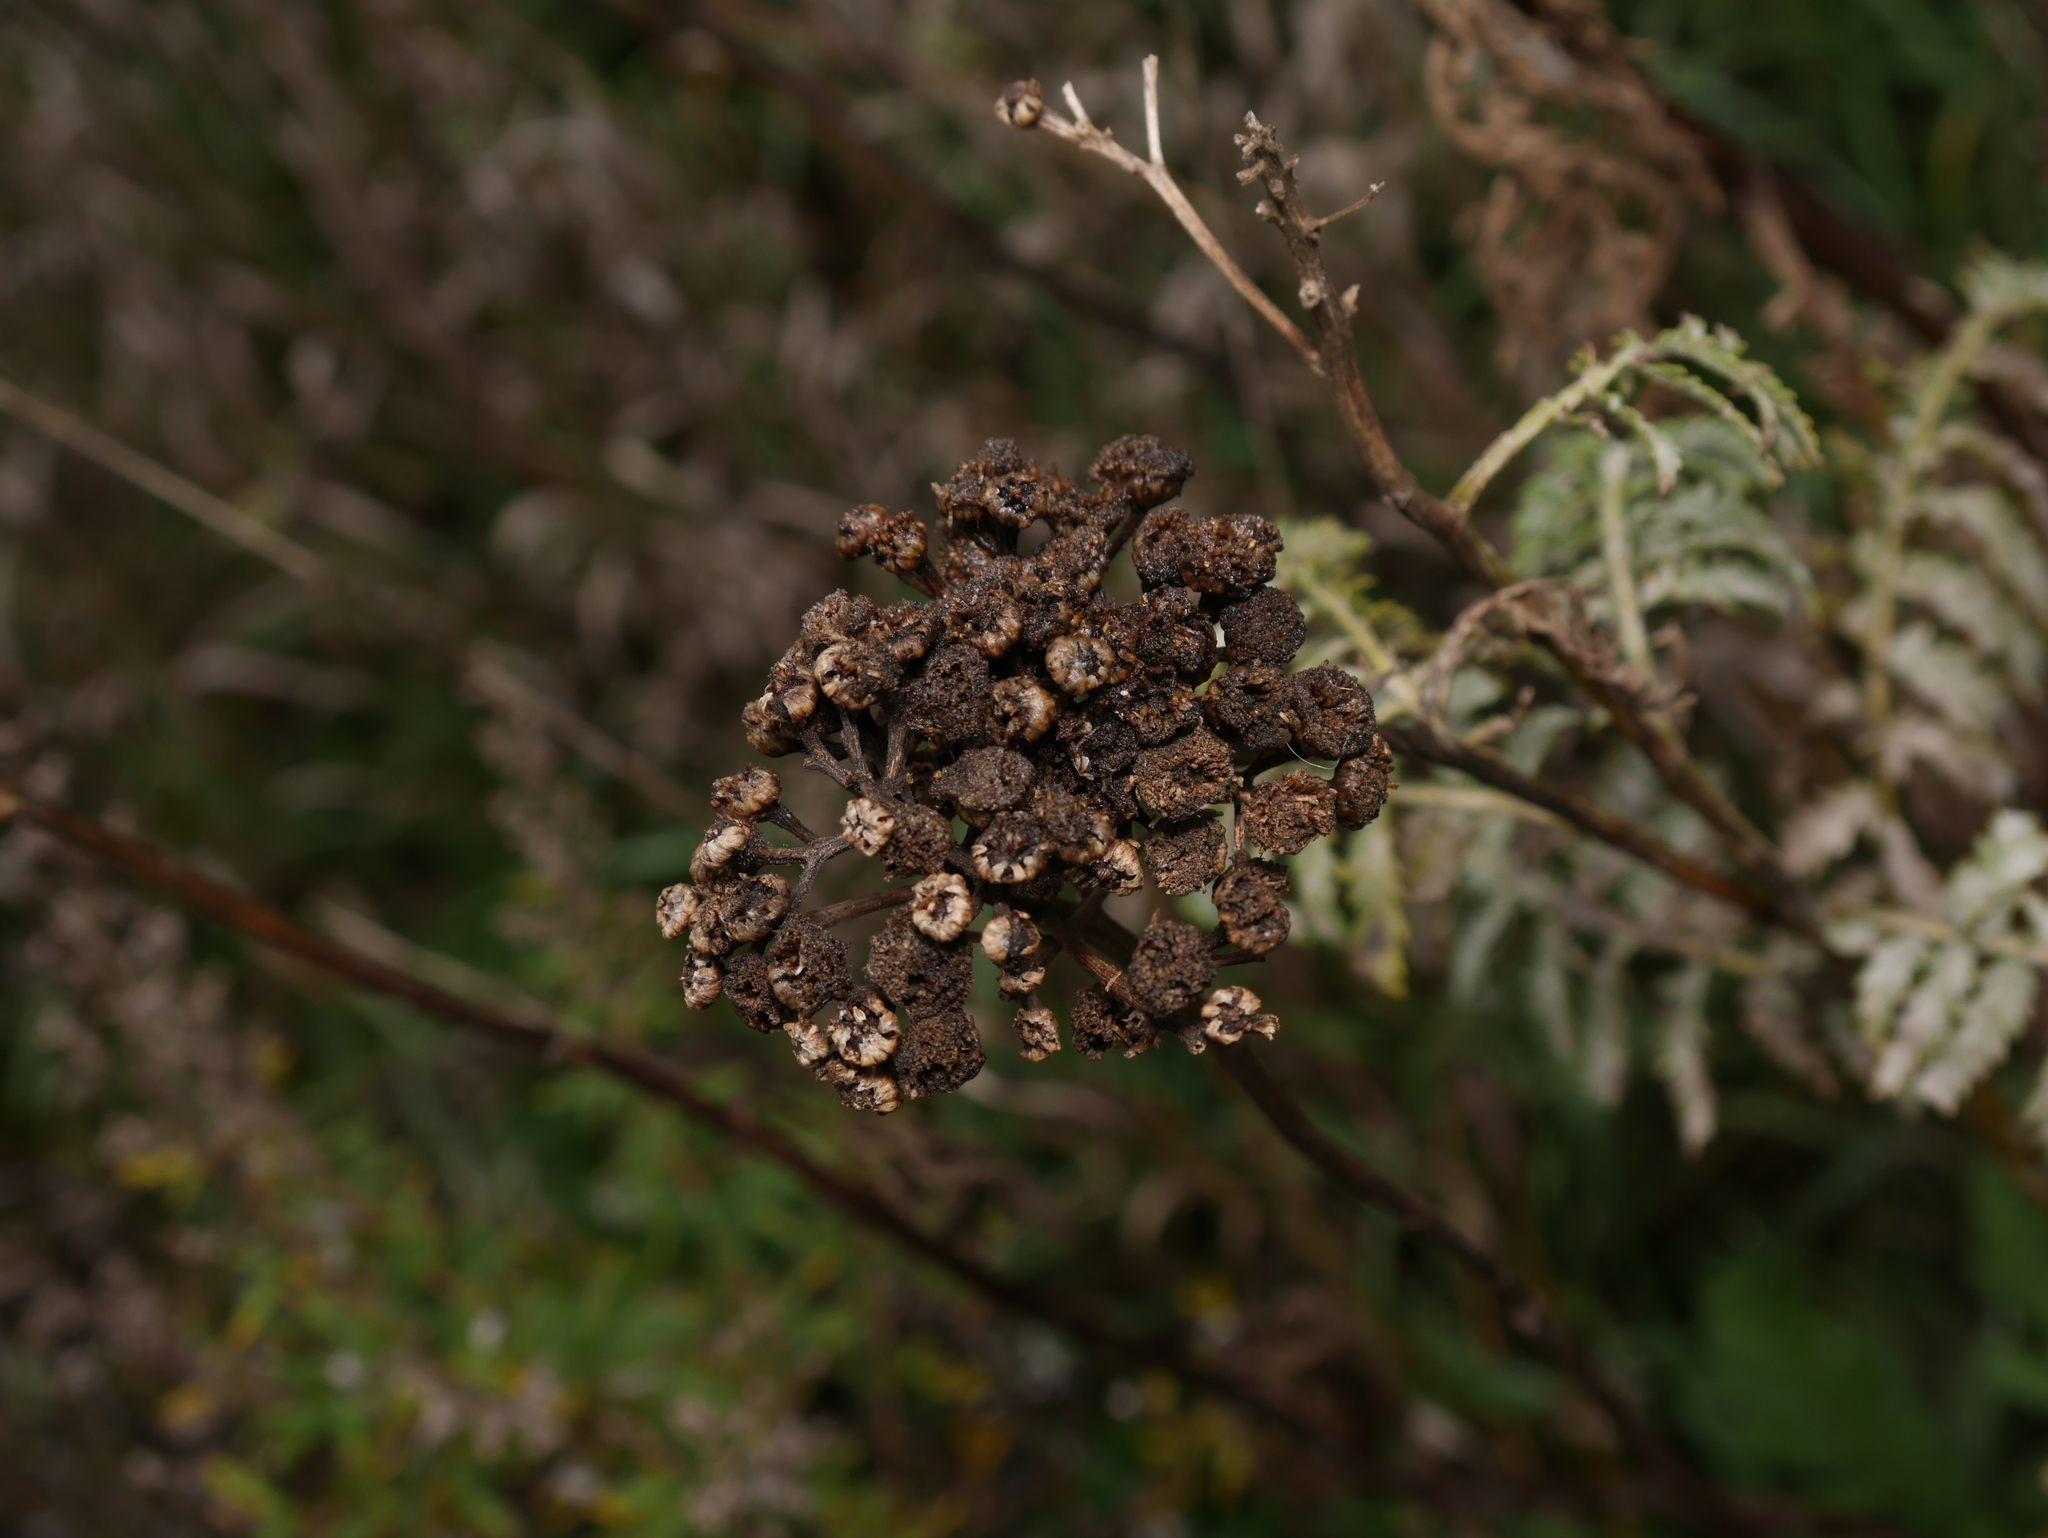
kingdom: Plantae
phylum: Tracheophyta
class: Magnoliopsida
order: Asterales
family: Asteraceae
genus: Tanacetum
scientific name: Tanacetum vulgare
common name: Common tansy
